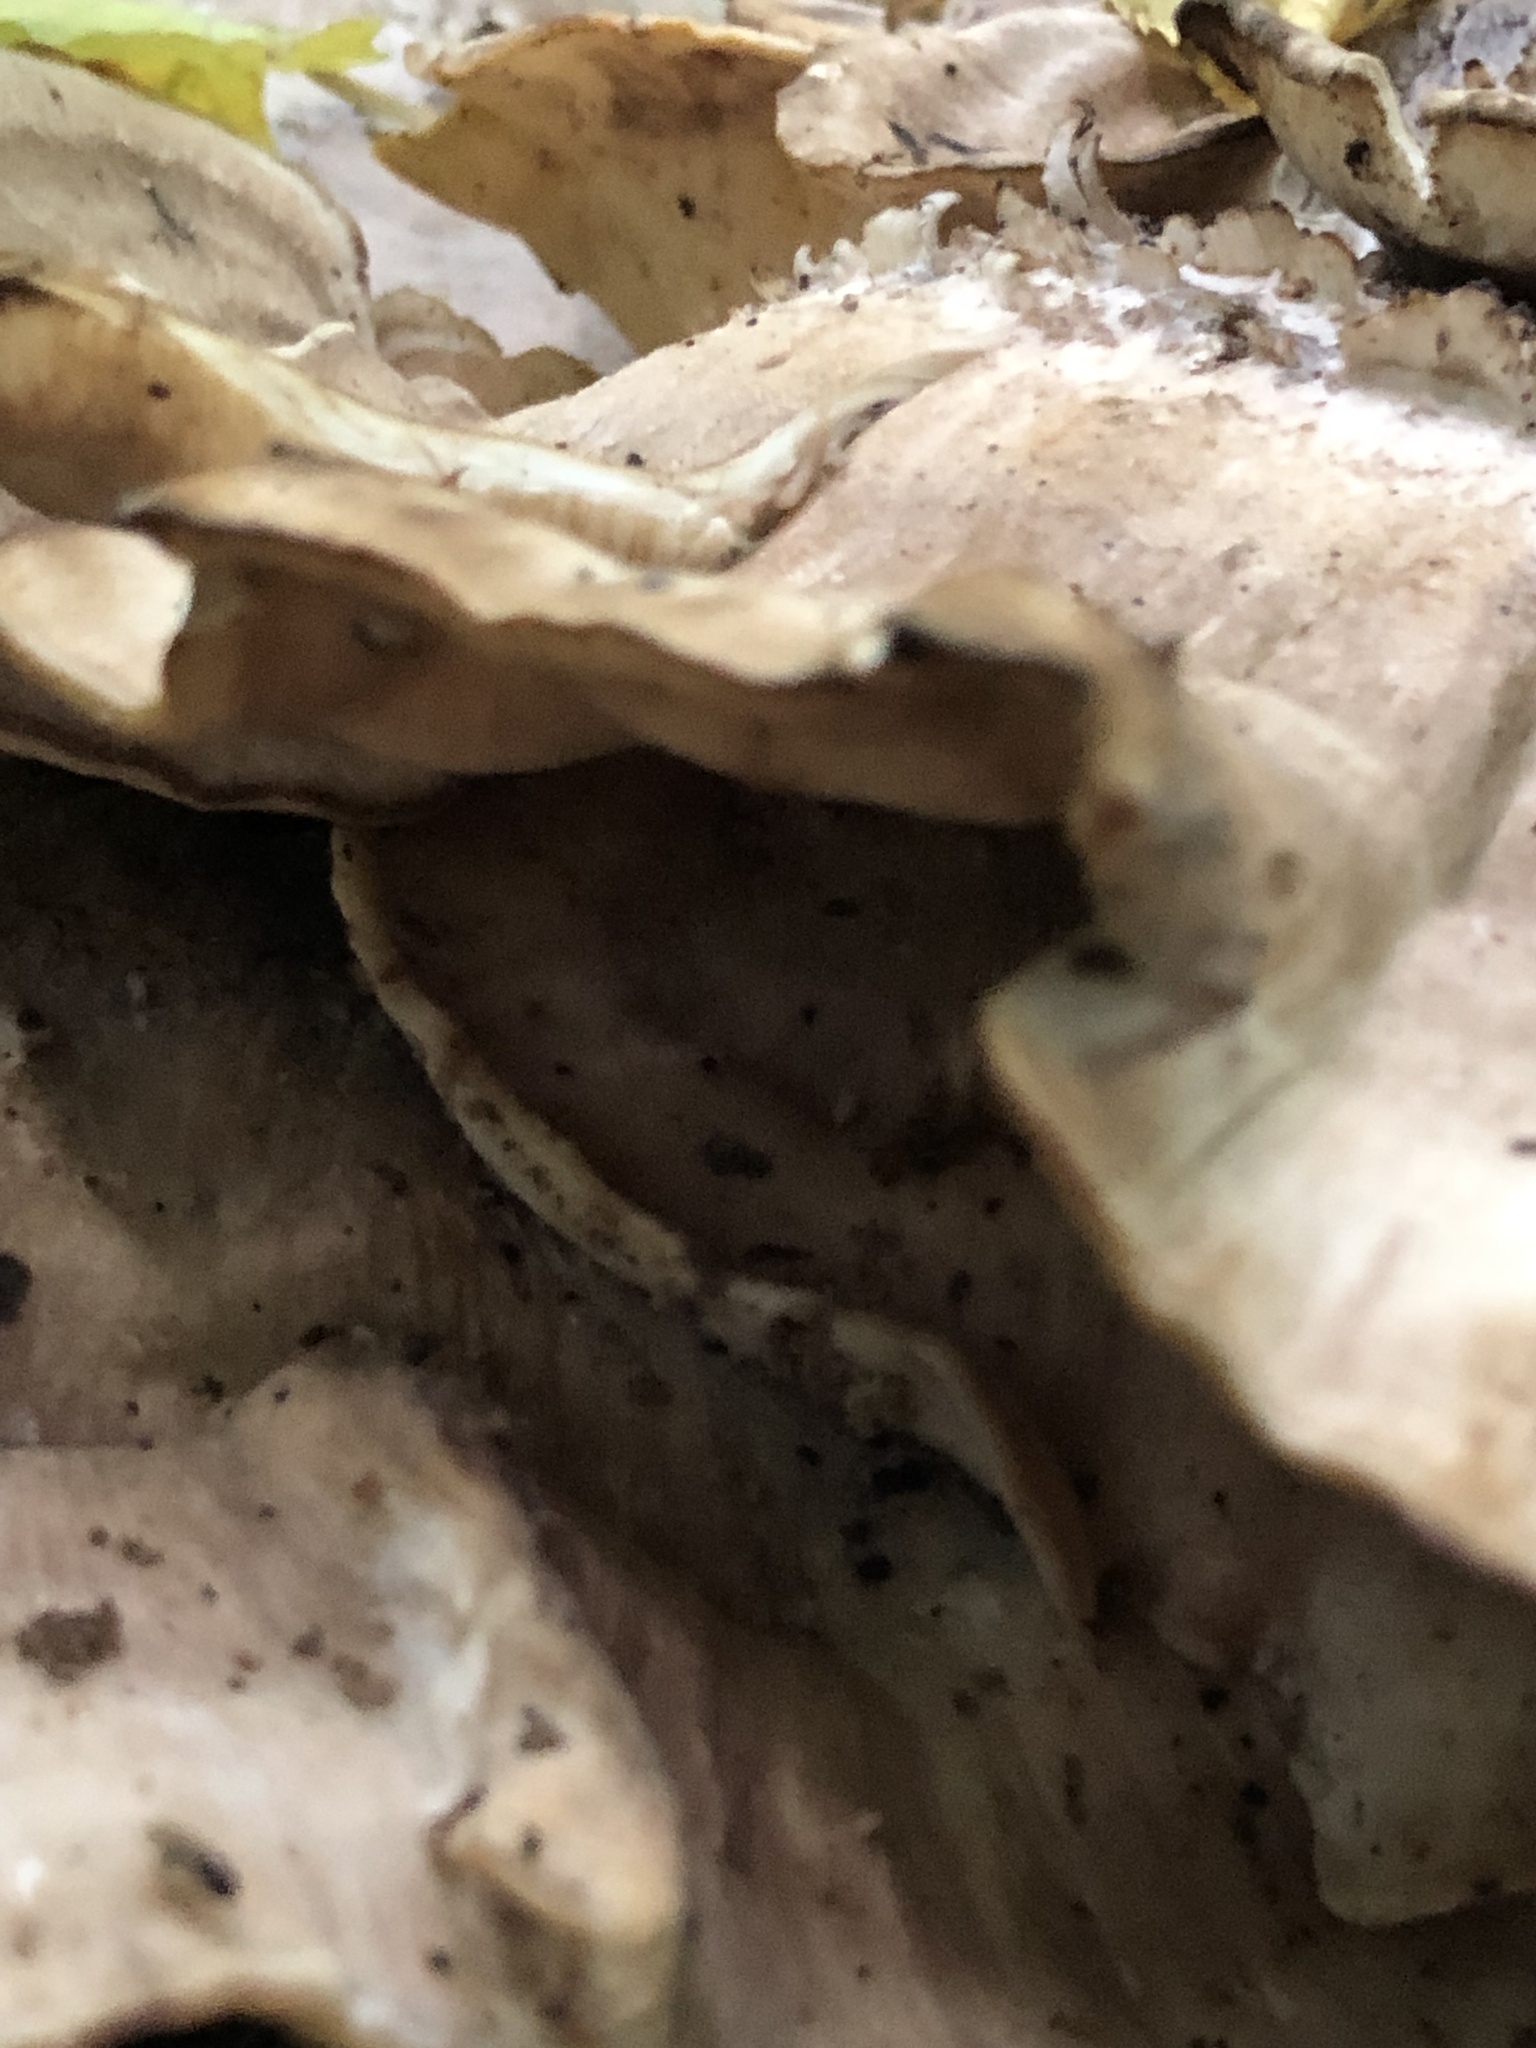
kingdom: Fungi
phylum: Basidiomycota
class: Agaricomycetes
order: Polyporales
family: Meripilaceae
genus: Meripilus
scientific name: Meripilus sumstinei
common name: Black-staining polypore
